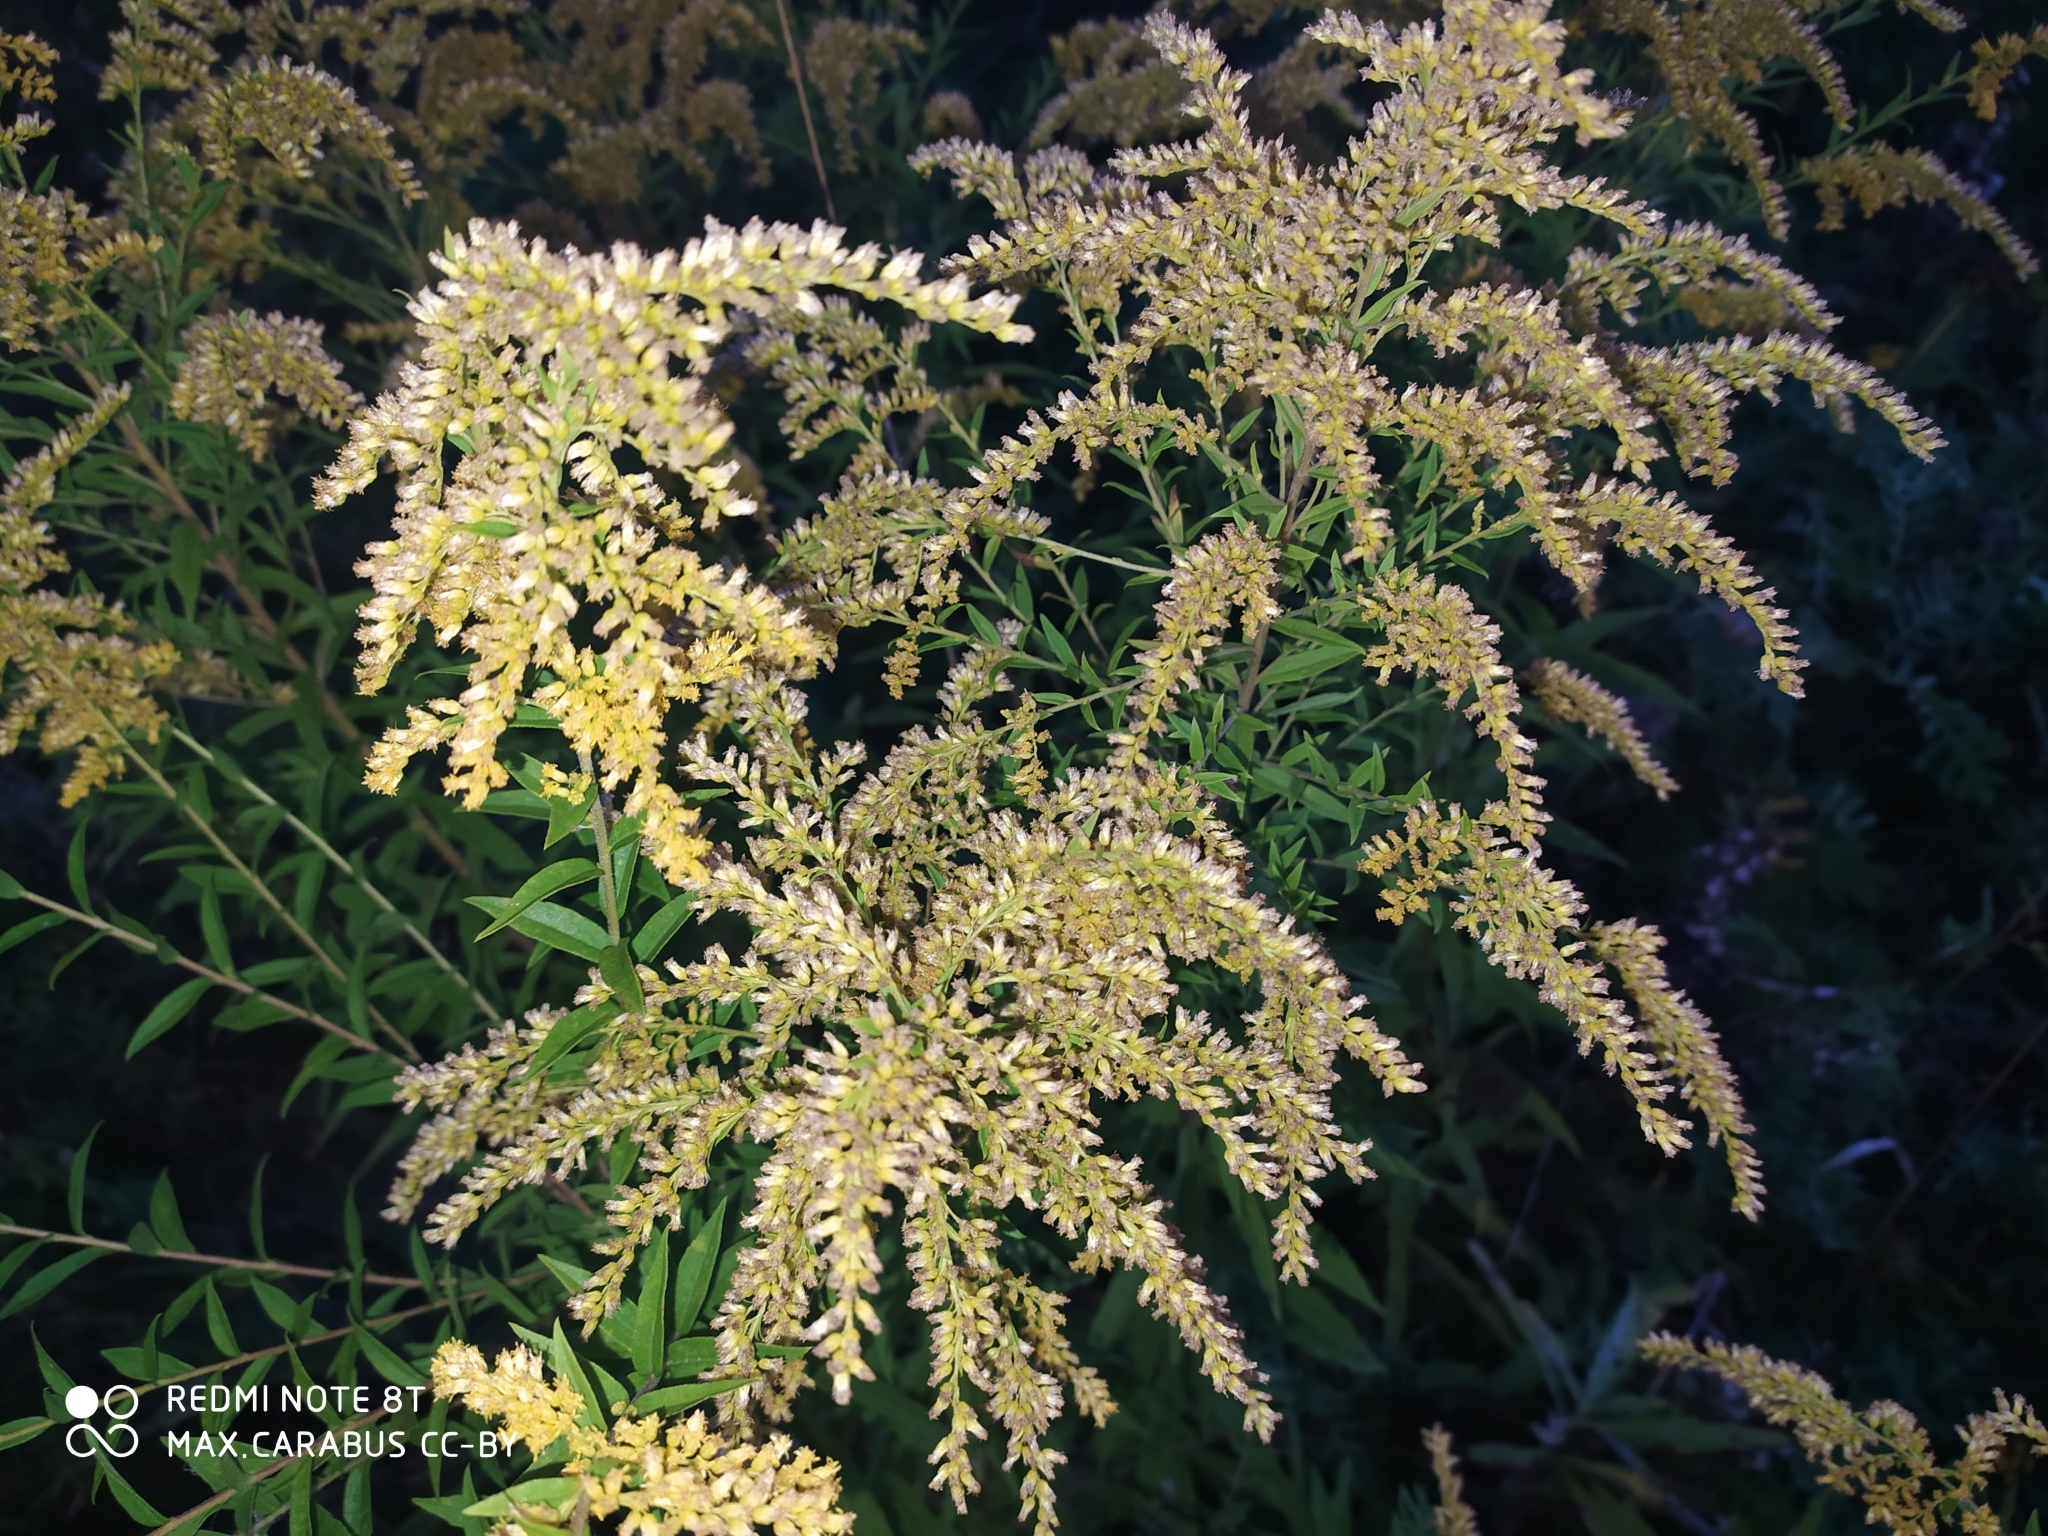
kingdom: Plantae
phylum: Tracheophyta
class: Magnoliopsida
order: Asterales
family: Asteraceae
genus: Solidago
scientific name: Solidago canadensis
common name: Canada goldenrod
